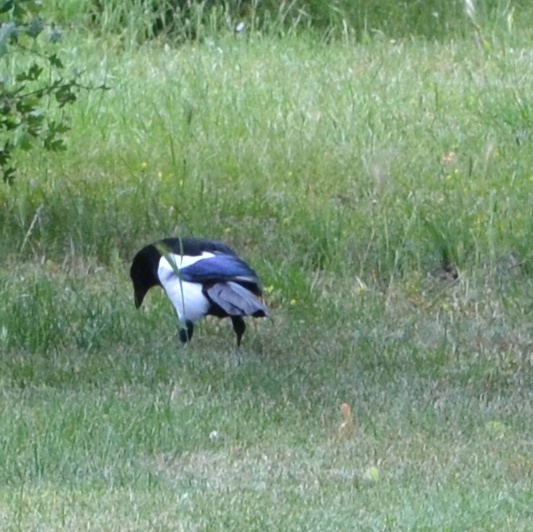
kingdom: Animalia
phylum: Chordata
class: Aves
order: Passeriformes
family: Corvidae
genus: Pica
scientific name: Pica pica
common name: Eurasian magpie
